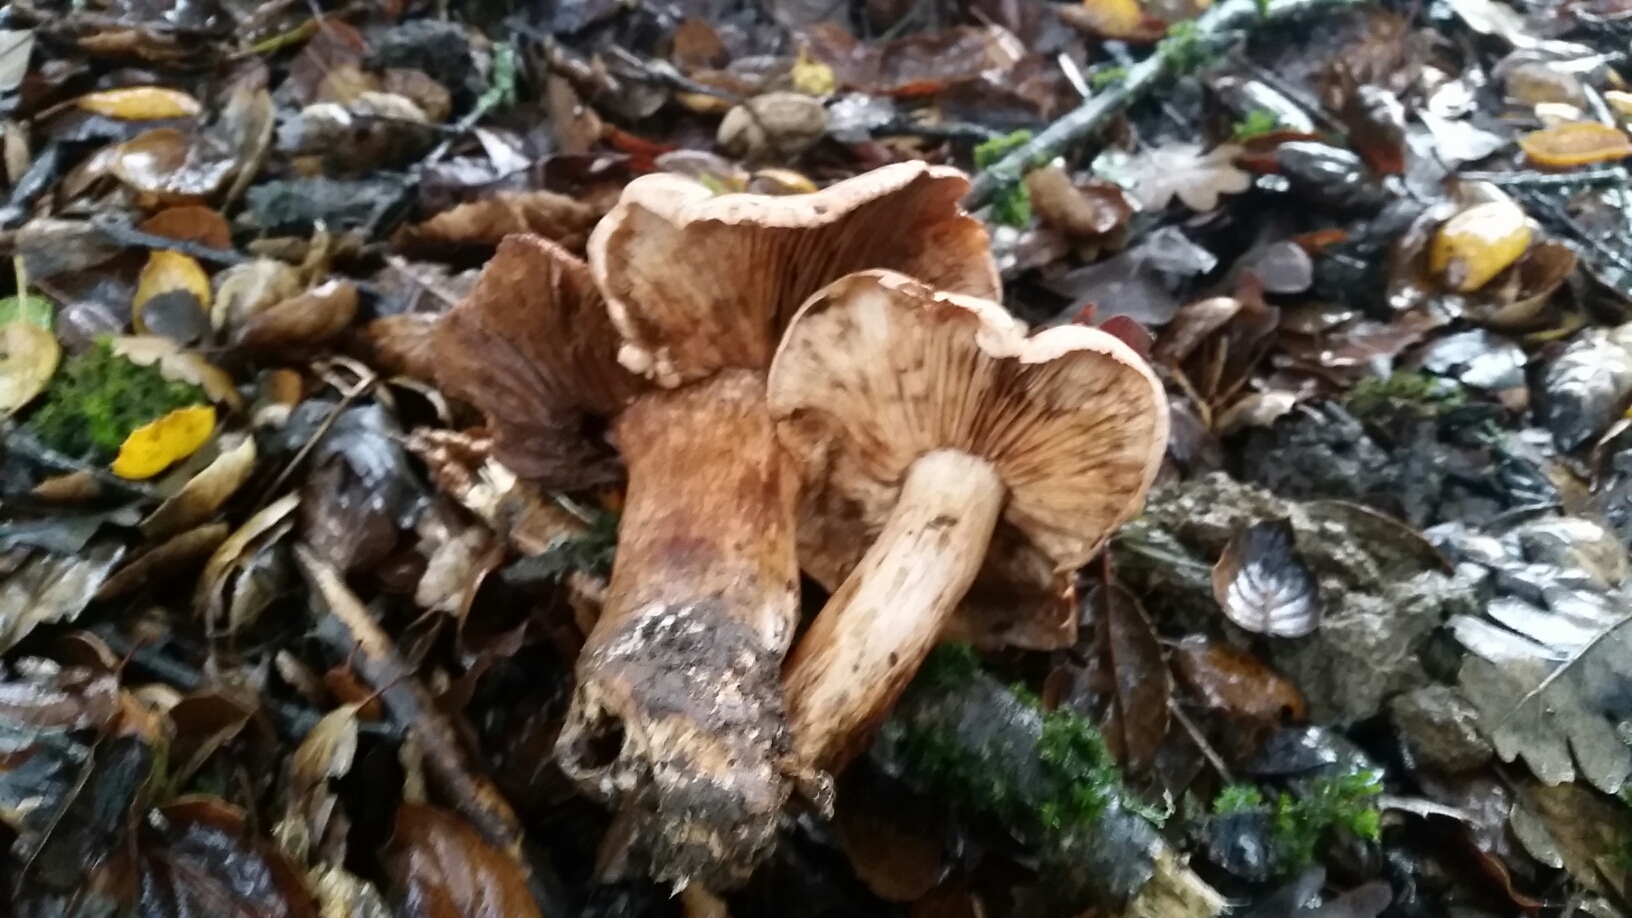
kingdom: Fungi
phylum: Basidiomycota
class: Agaricomycetes
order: Agaricales
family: Tricholomataceae
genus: Melanoleuca
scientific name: Melanoleuca dryophila
